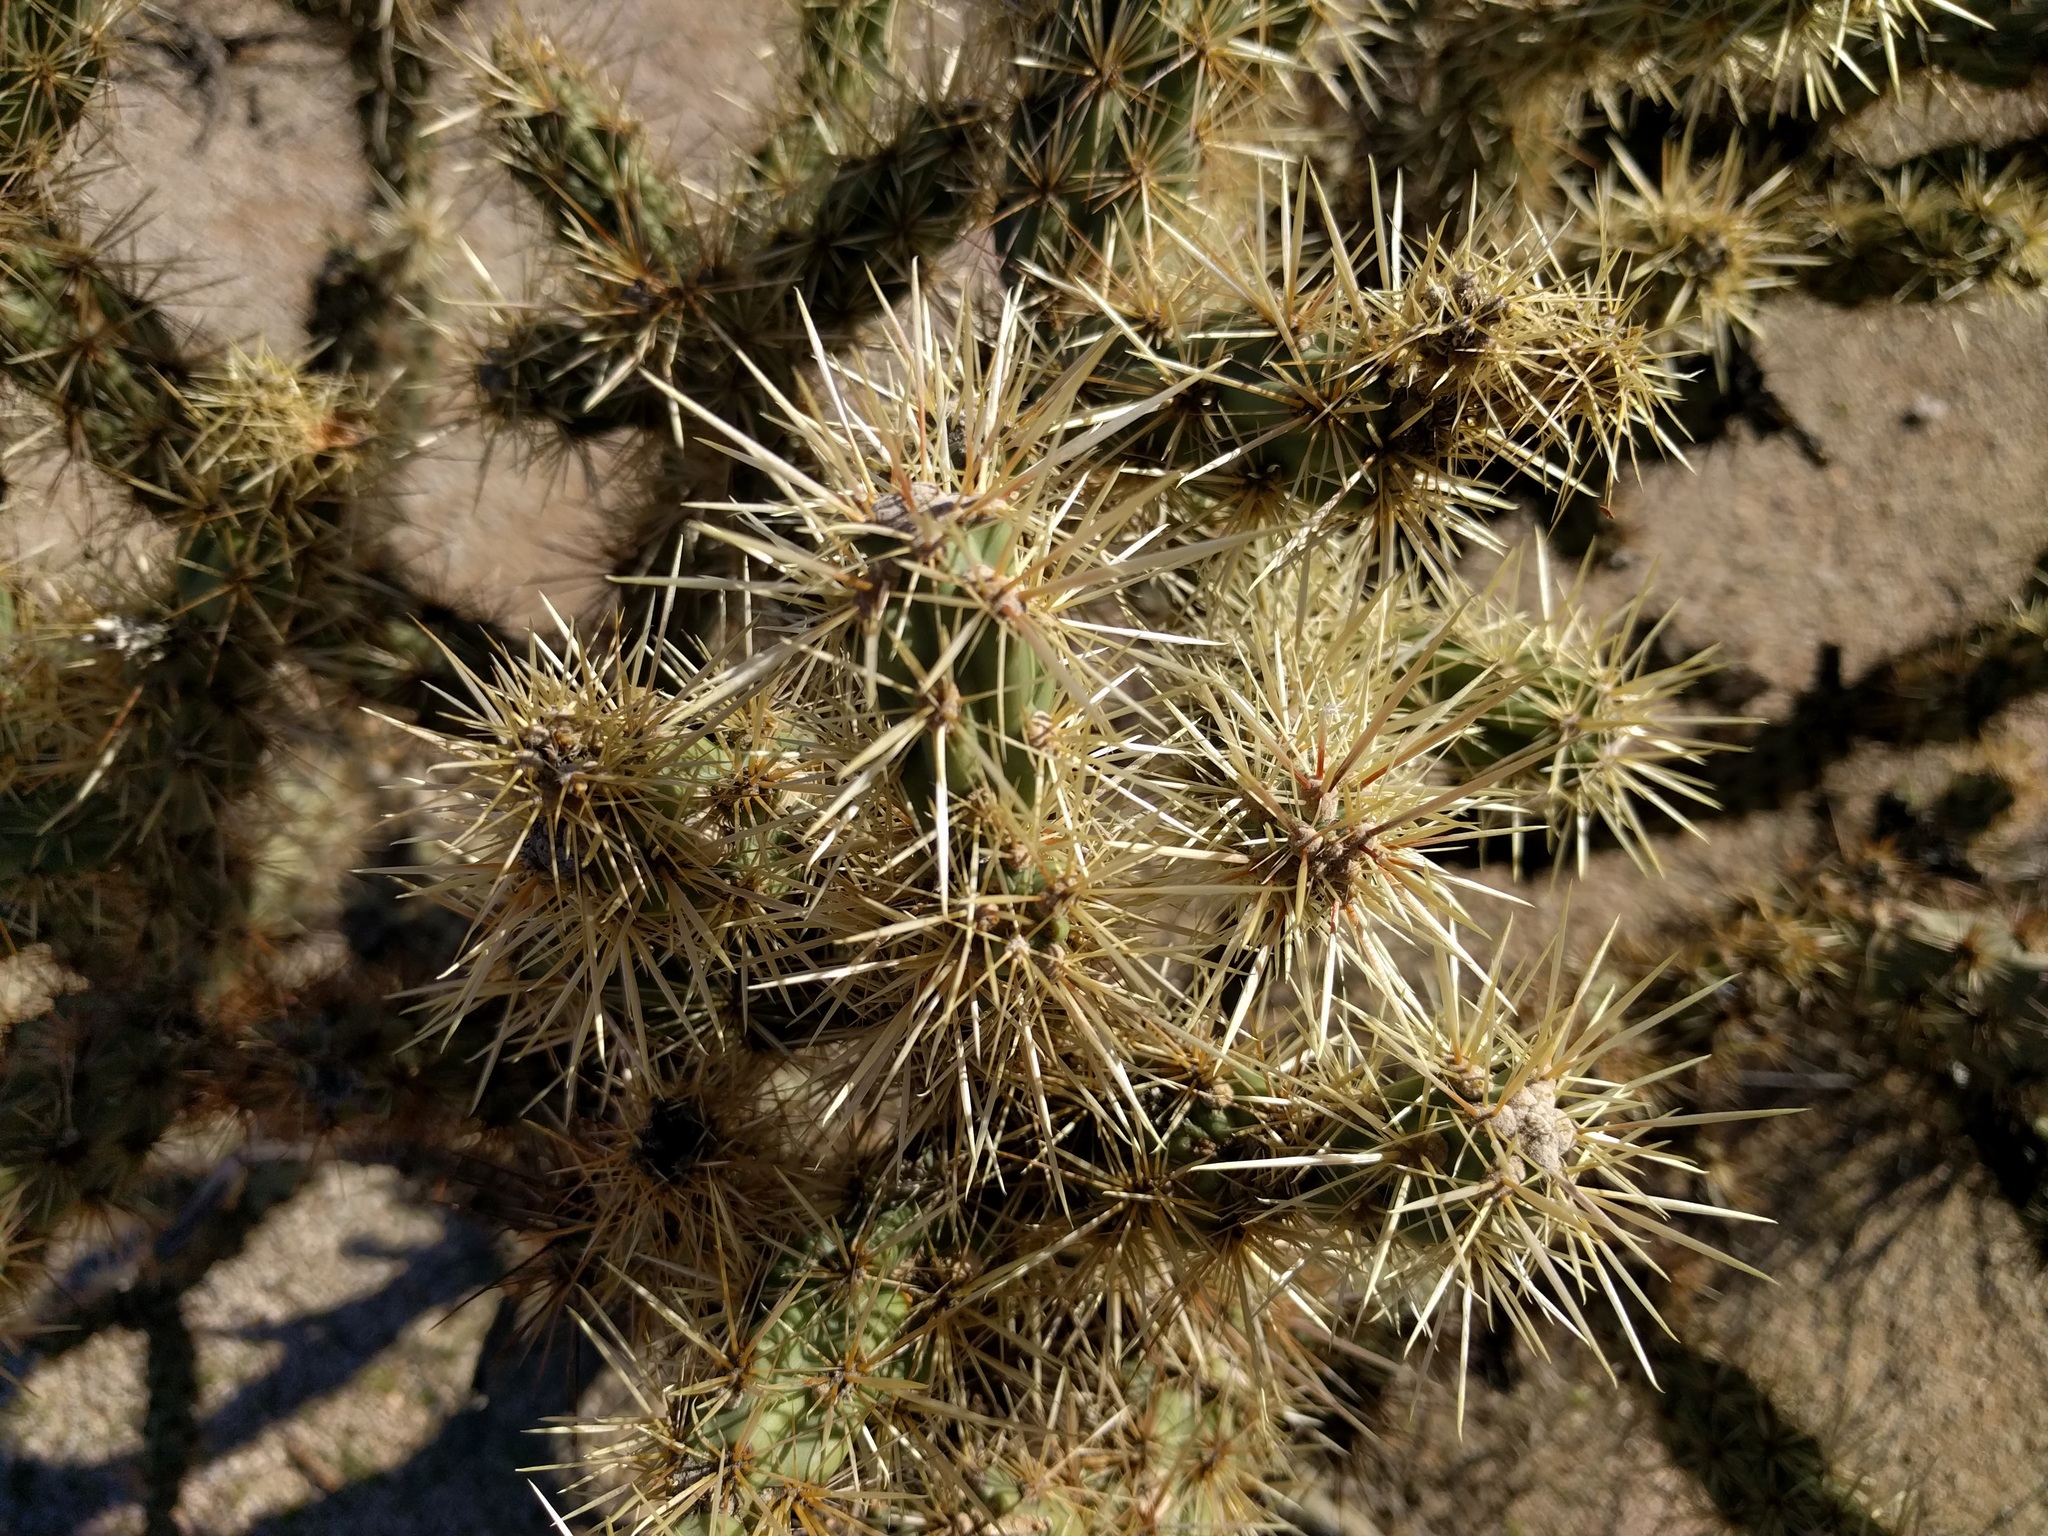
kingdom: Plantae
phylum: Tracheophyta
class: Magnoliopsida
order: Caryophyllales
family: Cactaceae
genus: Cylindropuntia
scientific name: Cylindropuntia acanthocarpa
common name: Buckhorn cholla
